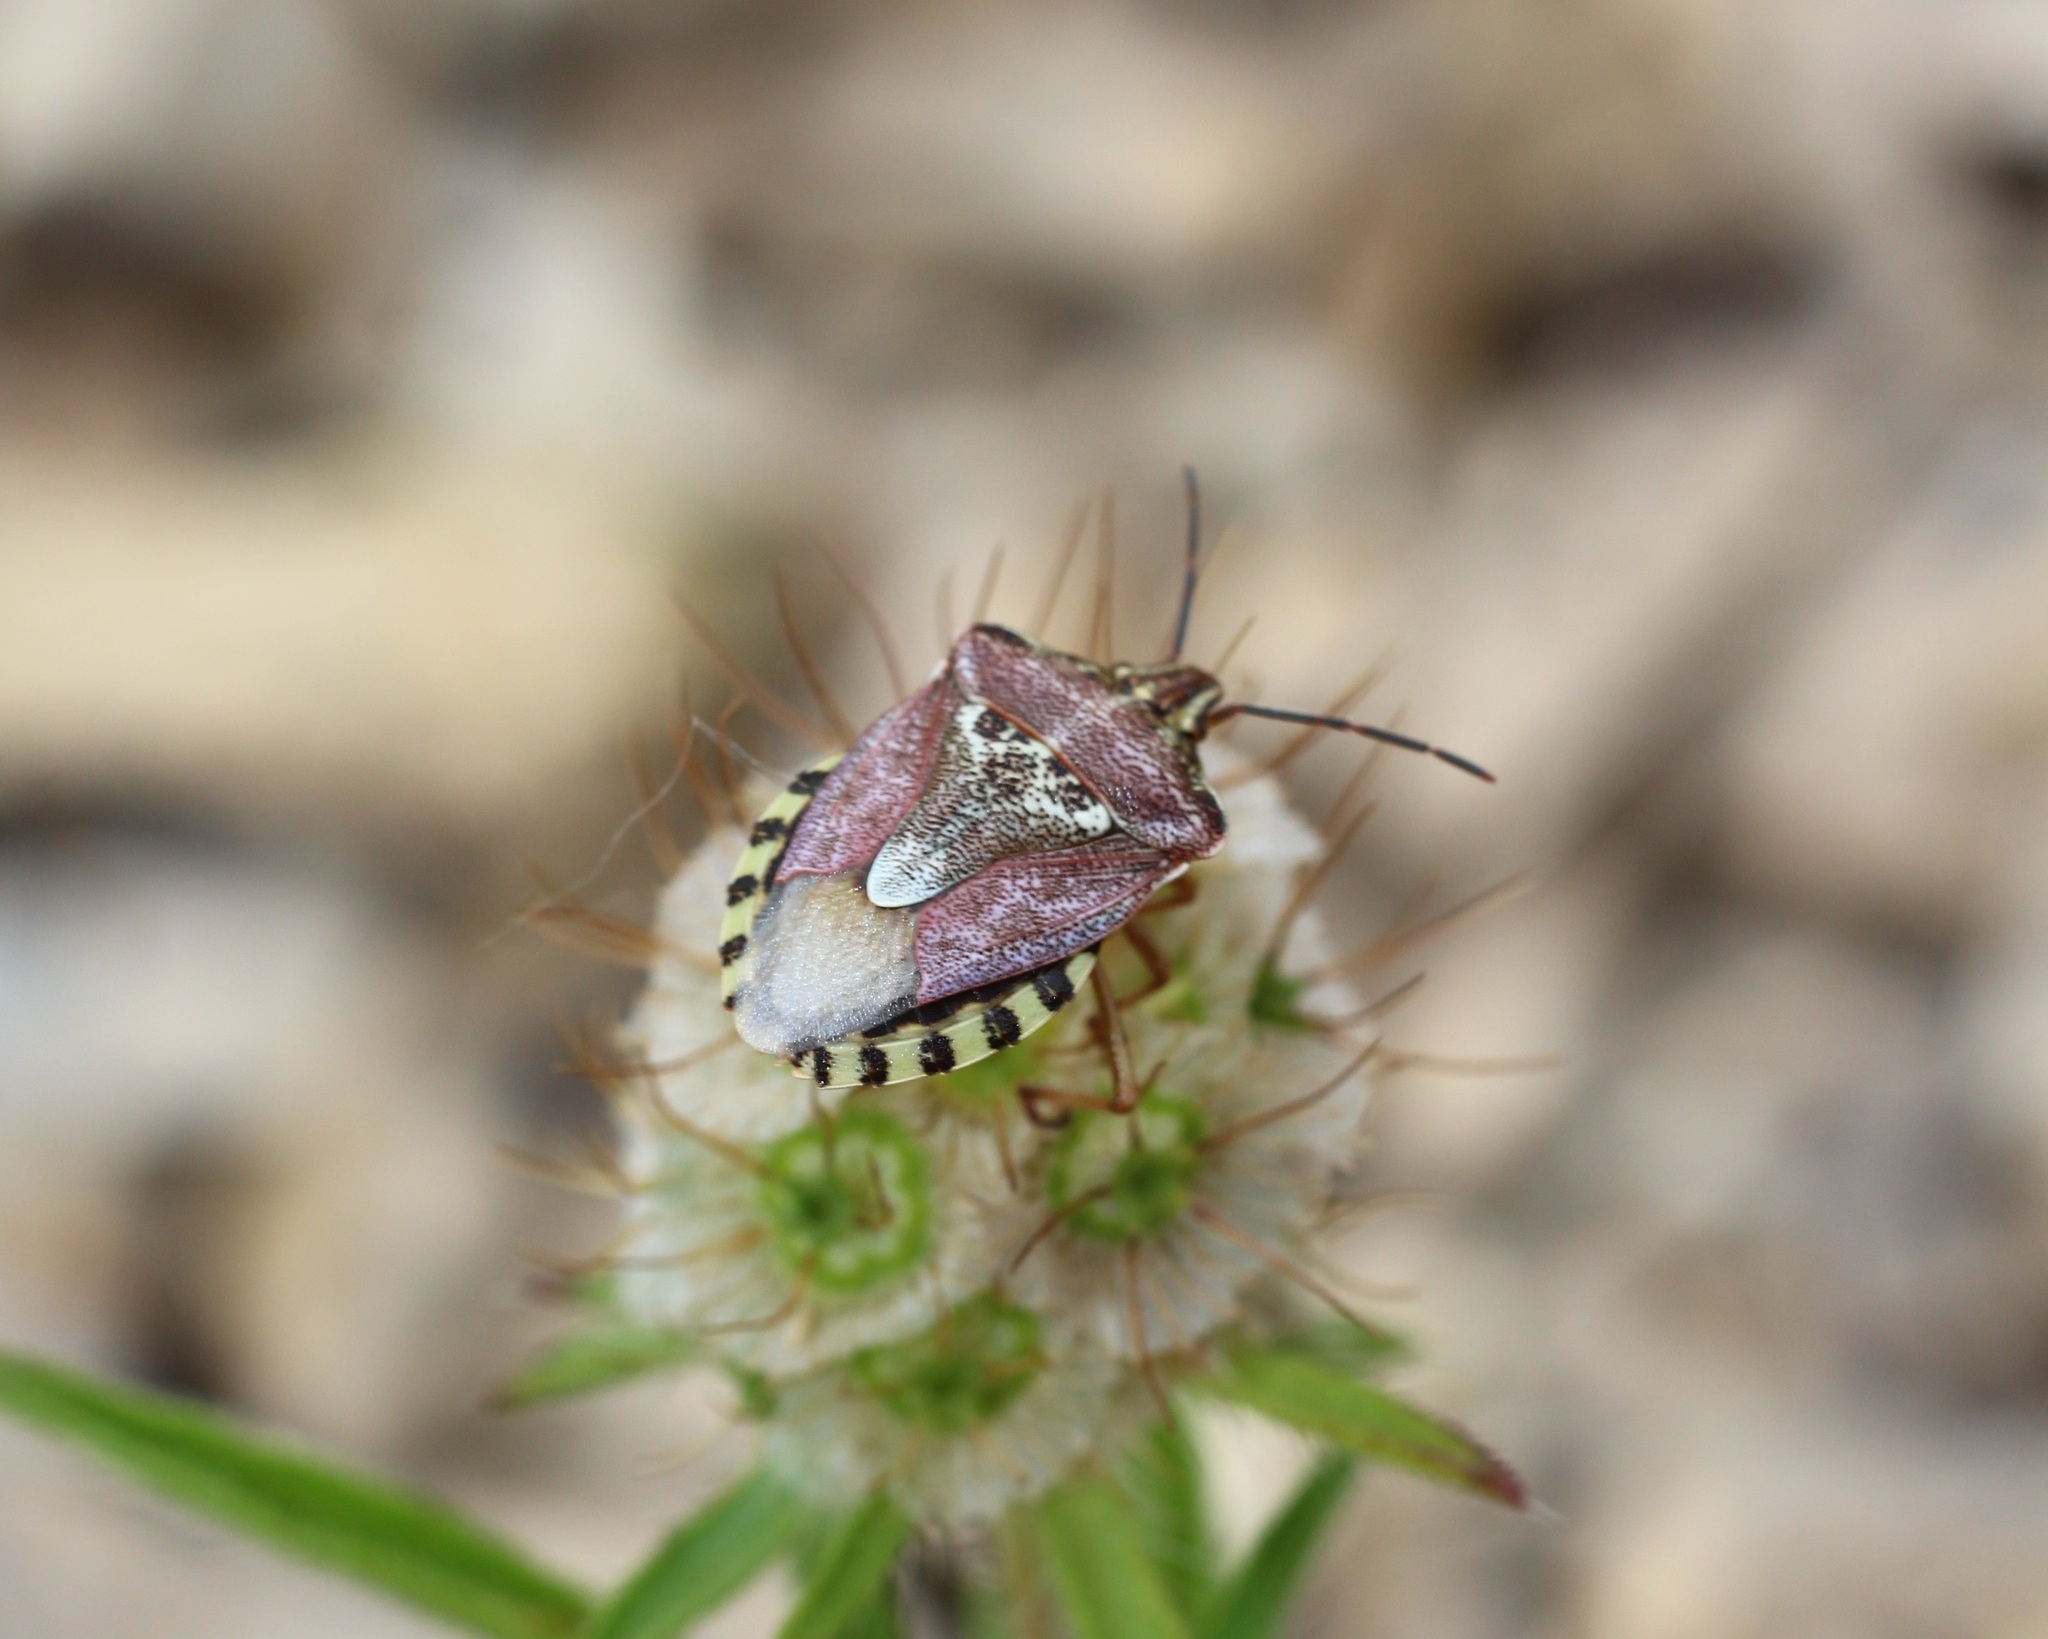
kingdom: Animalia
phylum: Arthropoda
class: Insecta
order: Hemiptera
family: Miridae
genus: Orthops
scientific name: Orthops kalmii
